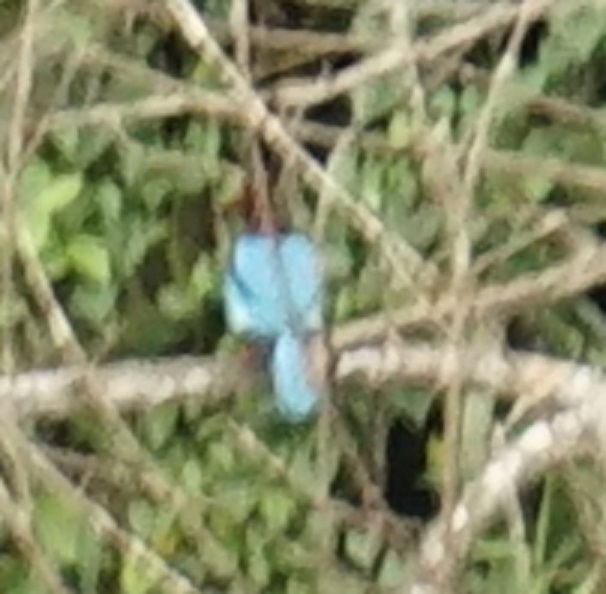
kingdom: Animalia
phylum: Chordata
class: Aves
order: Coraciiformes
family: Alcedinidae
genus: Halcyon
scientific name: Halcyon smyrnensis
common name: White-throated kingfisher
